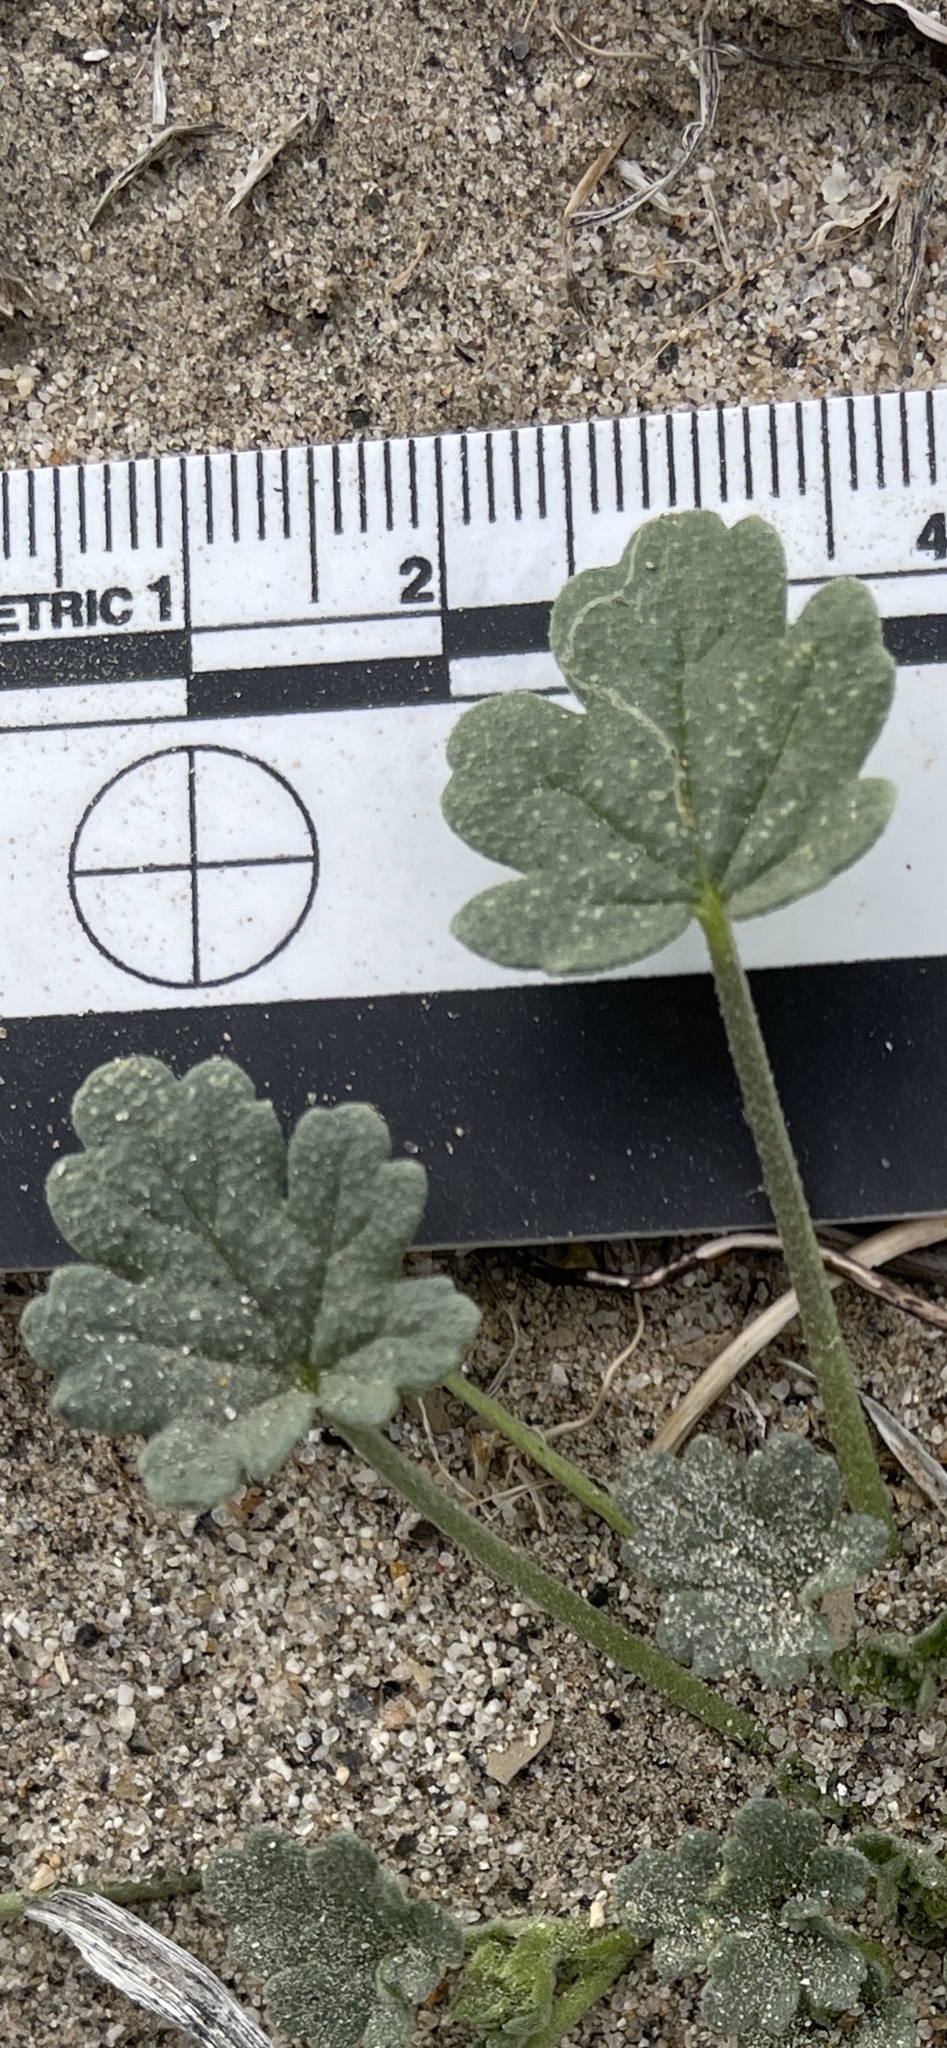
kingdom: Plantae
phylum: Tracheophyta
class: Magnoliopsida
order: Malvales
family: Malvaceae
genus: Eremalche
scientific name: Eremalche exilis
